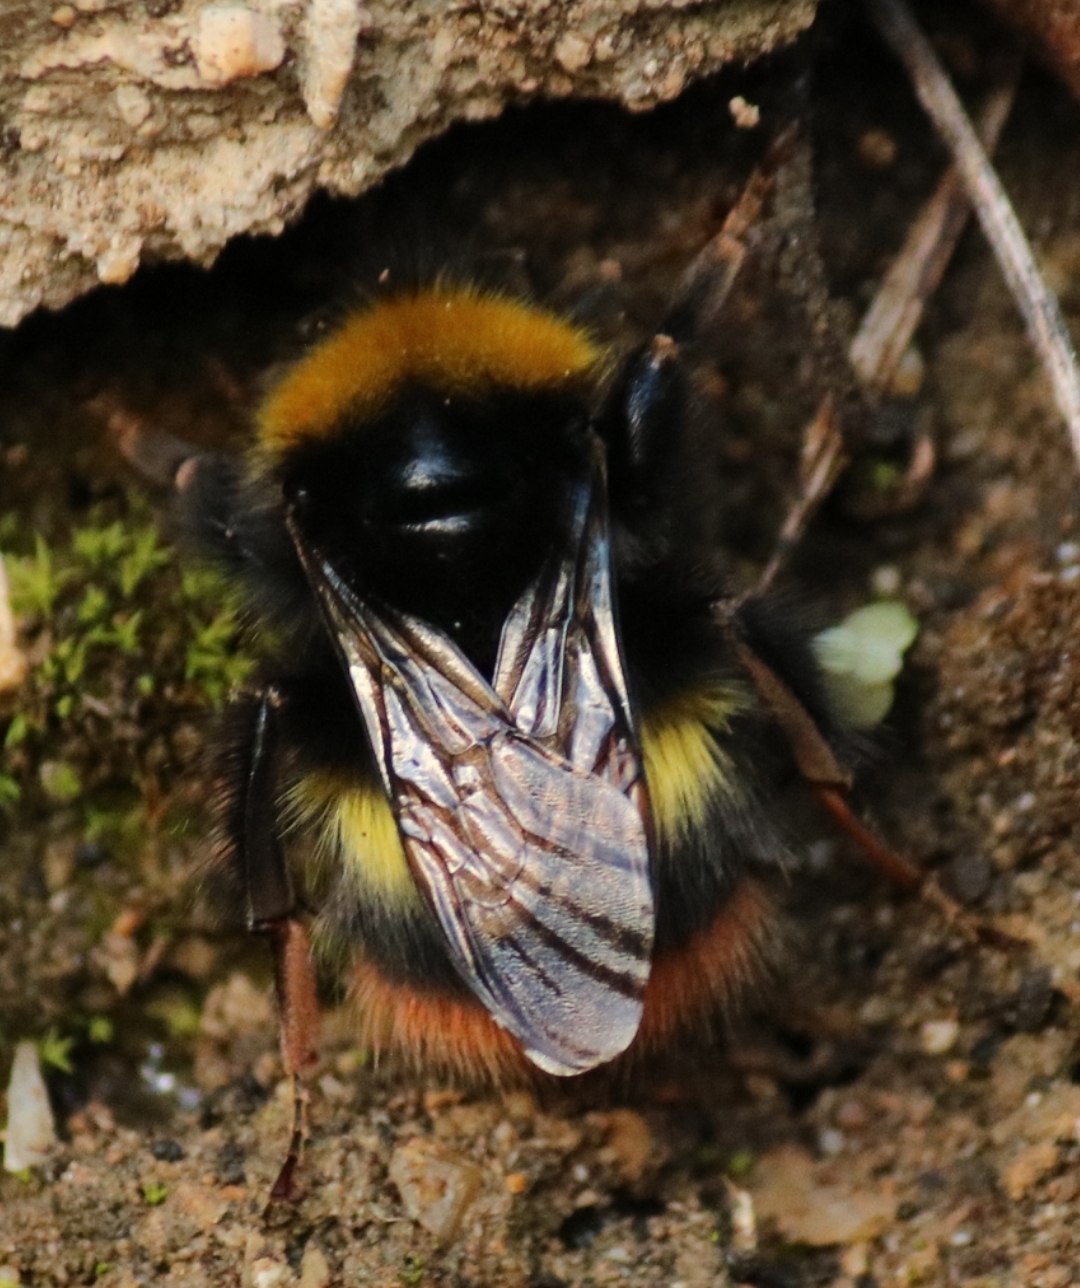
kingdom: Animalia
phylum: Arthropoda
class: Insecta
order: Hymenoptera
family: Apidae
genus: Bombus
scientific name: Bombus pratorum
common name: Early humble-bee
